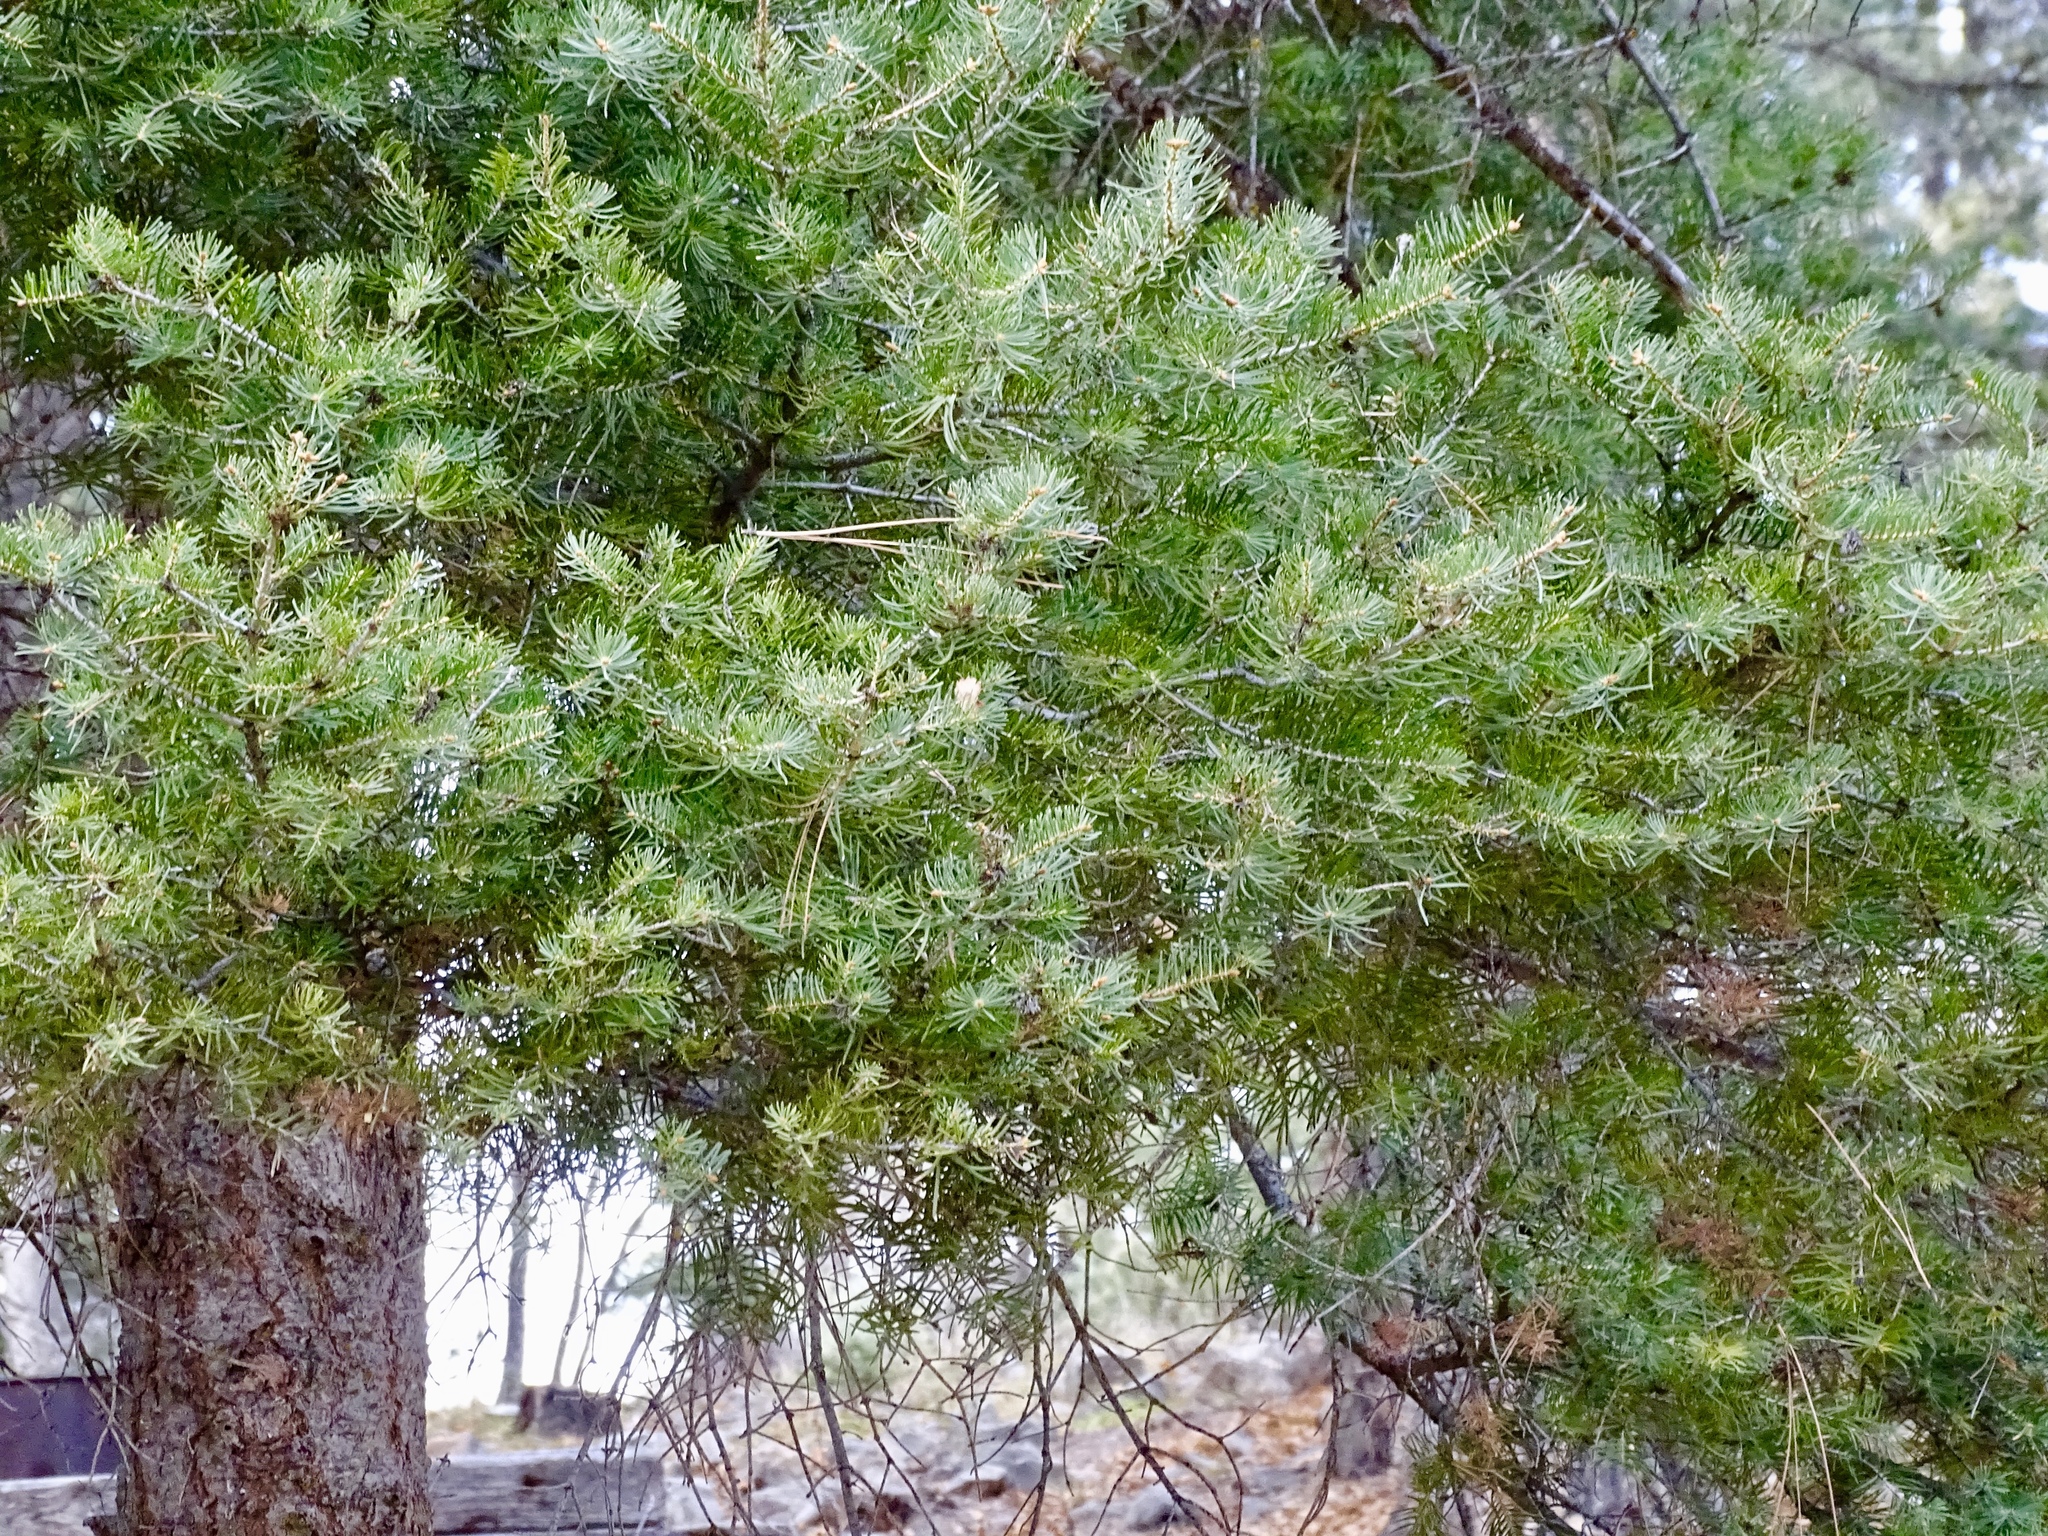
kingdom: Plantae
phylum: Tracheophyta
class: Pinopsida
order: Pinales
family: Pinaceae
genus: Pseudotsuga
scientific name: Pseudotsuga menziesii
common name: Douglas fir
